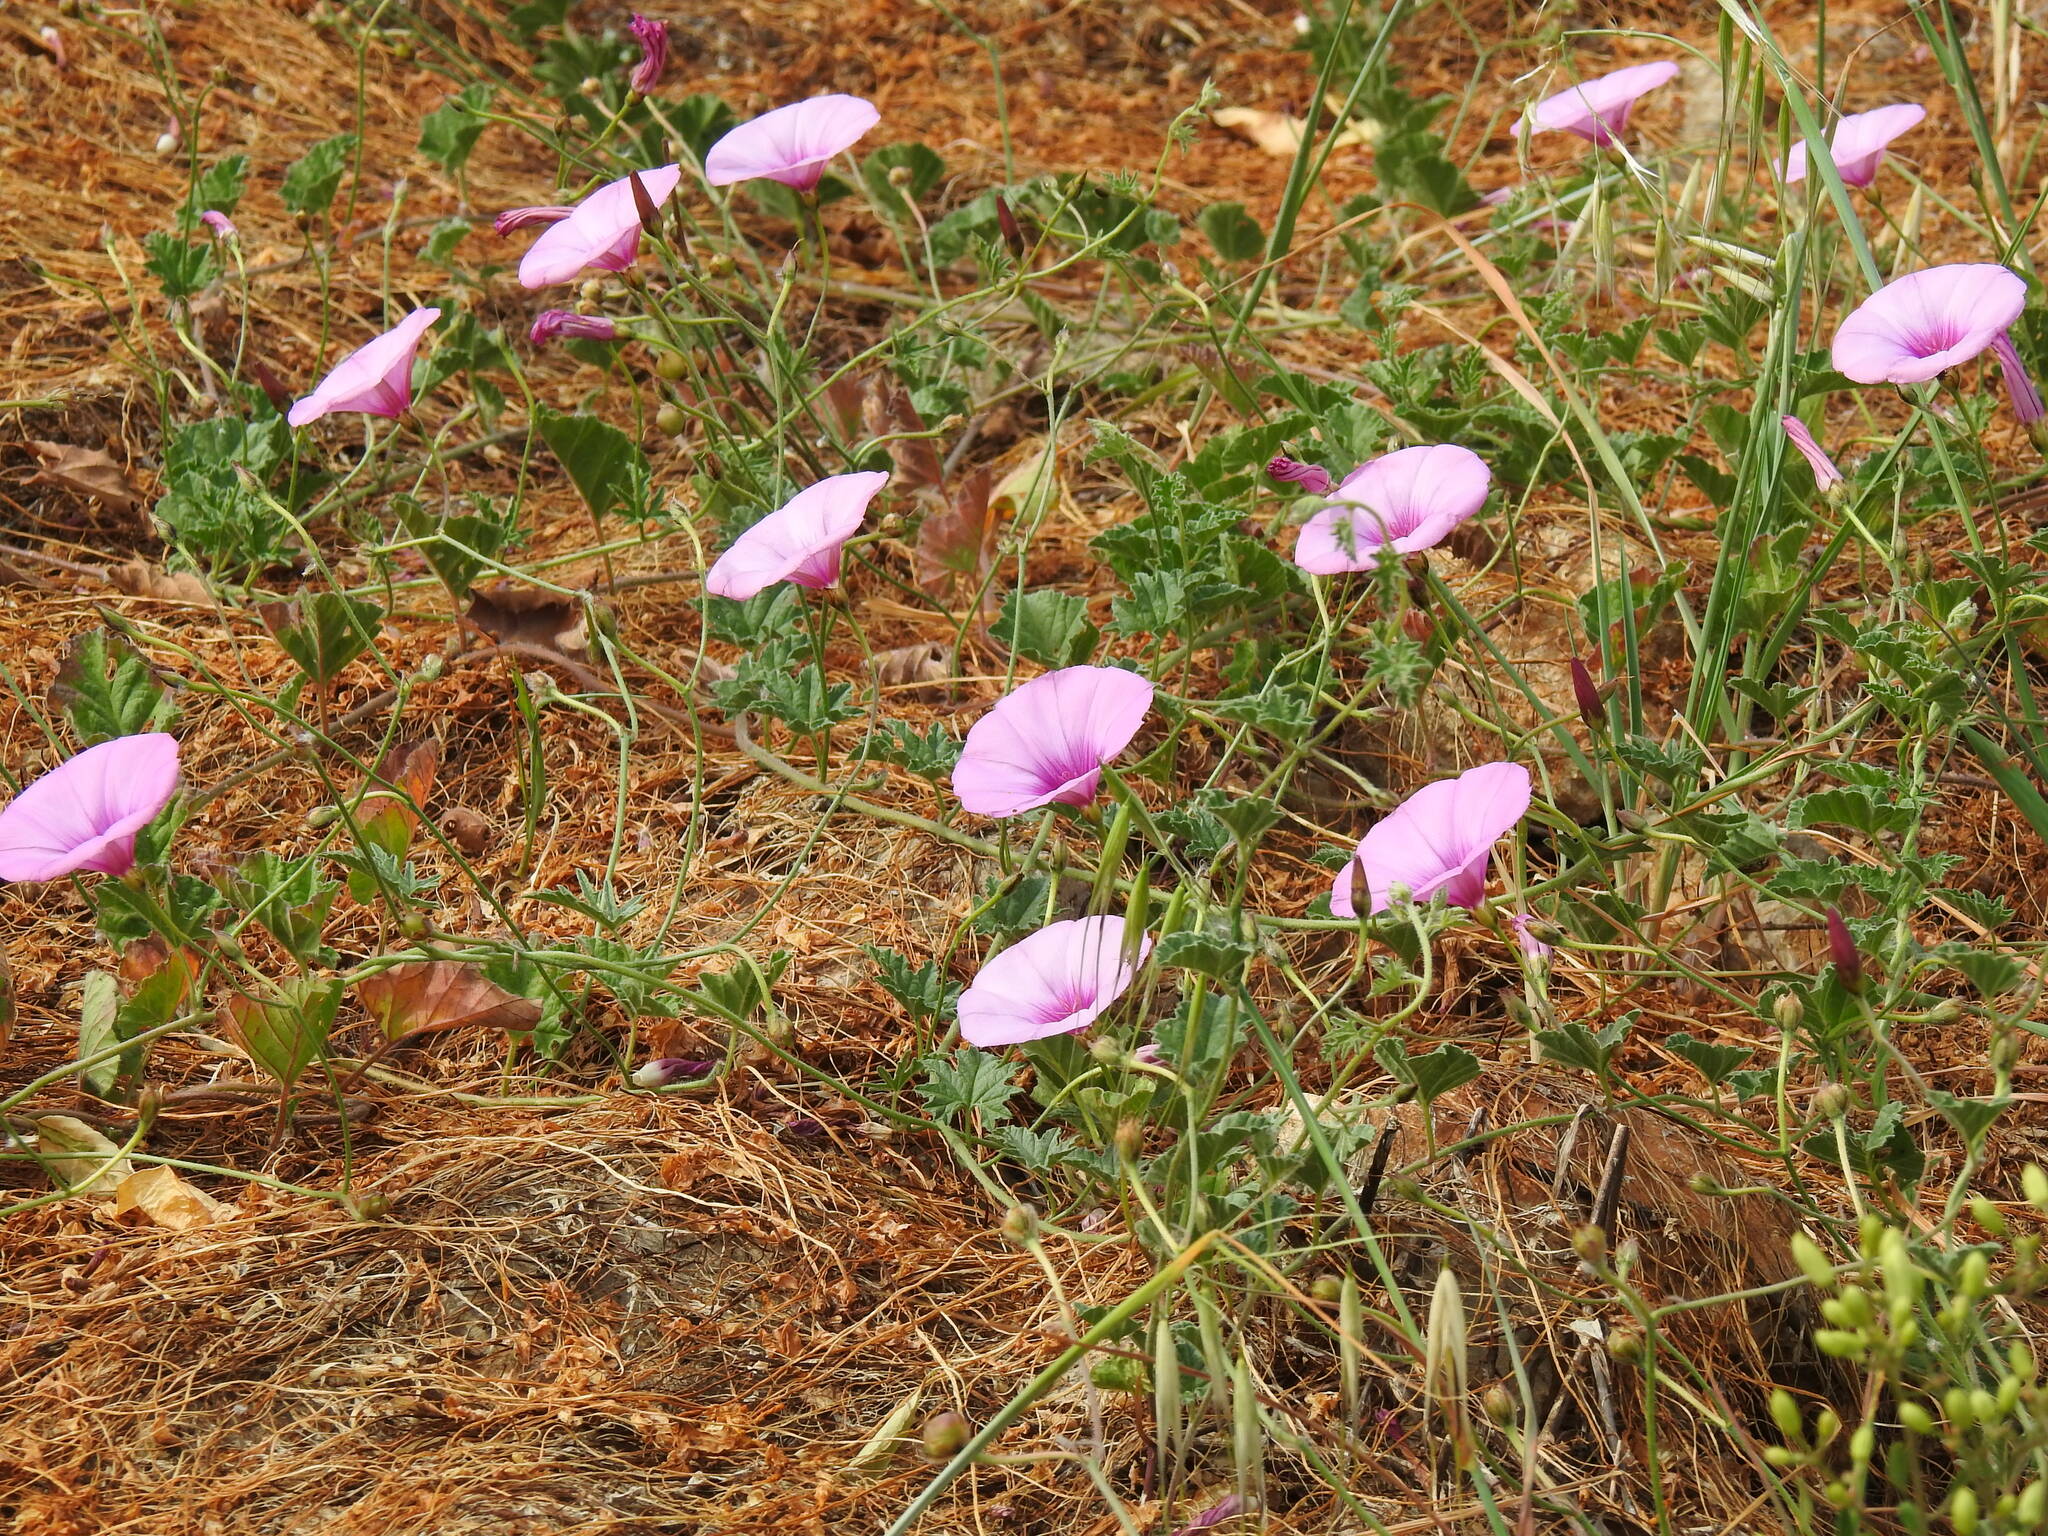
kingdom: Plantae
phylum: Tracheophyta
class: Magnoliopsida
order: Solanales
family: Convolvulaceae
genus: Convolvulus
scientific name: Convolvulus althaeoides
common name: Mallow bindweed
